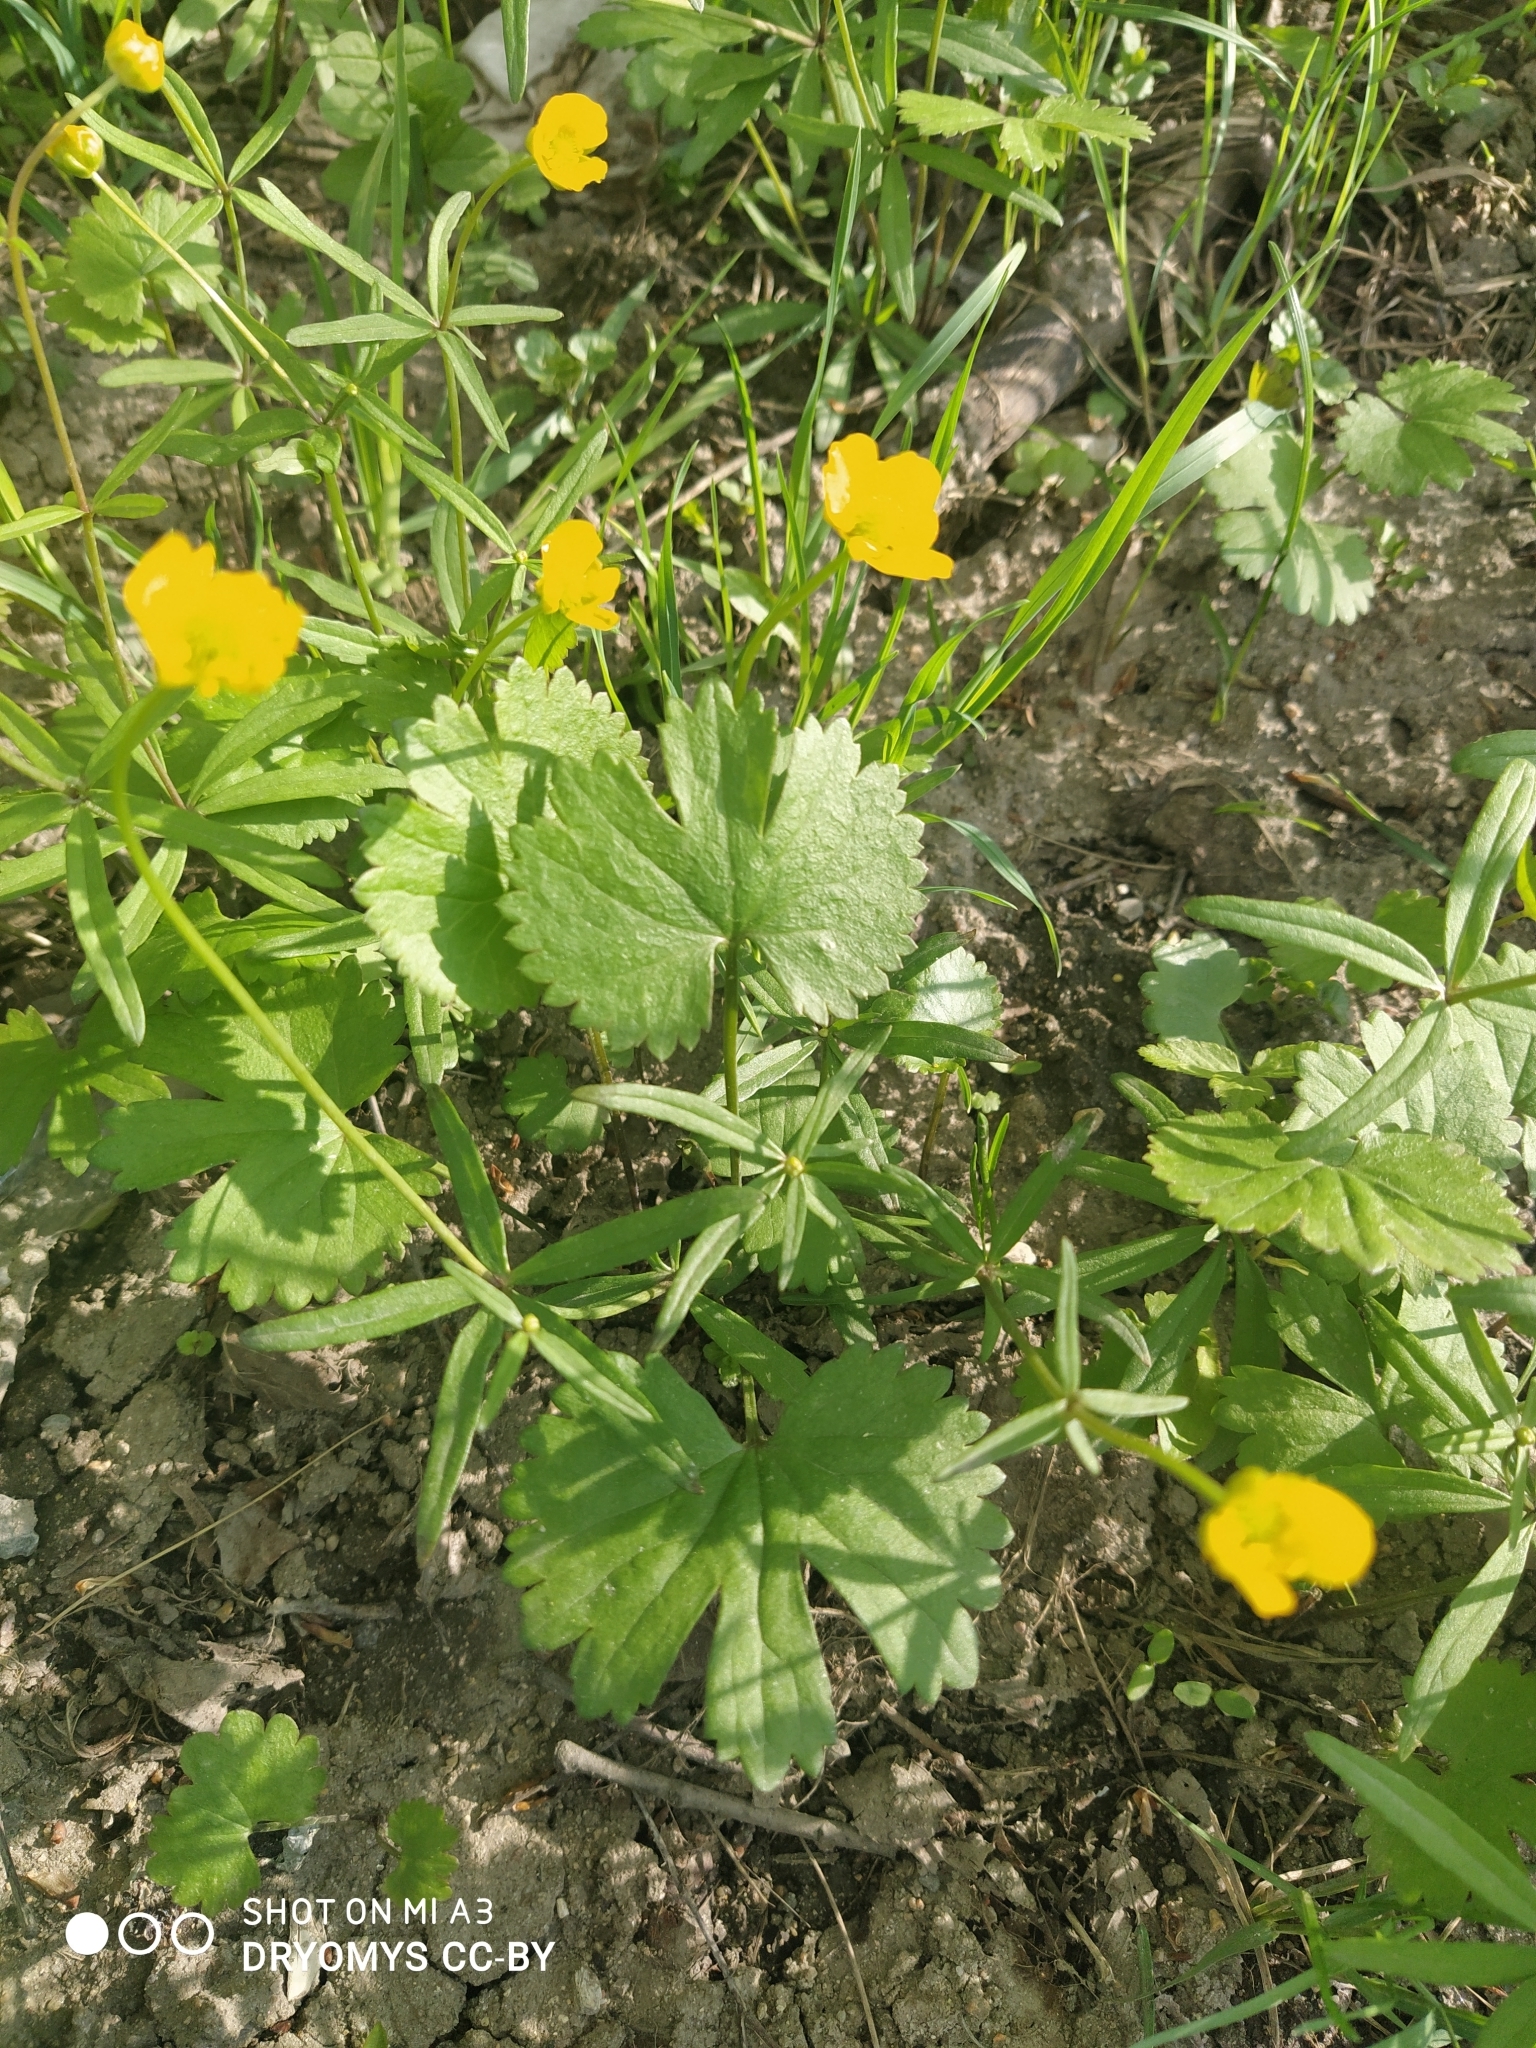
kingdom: Plantae
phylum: Tracheophyta
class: Magnoliopsida
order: Ranunculales
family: Ranunculaceae
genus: Ranunculus
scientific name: Ranunculus fallax
